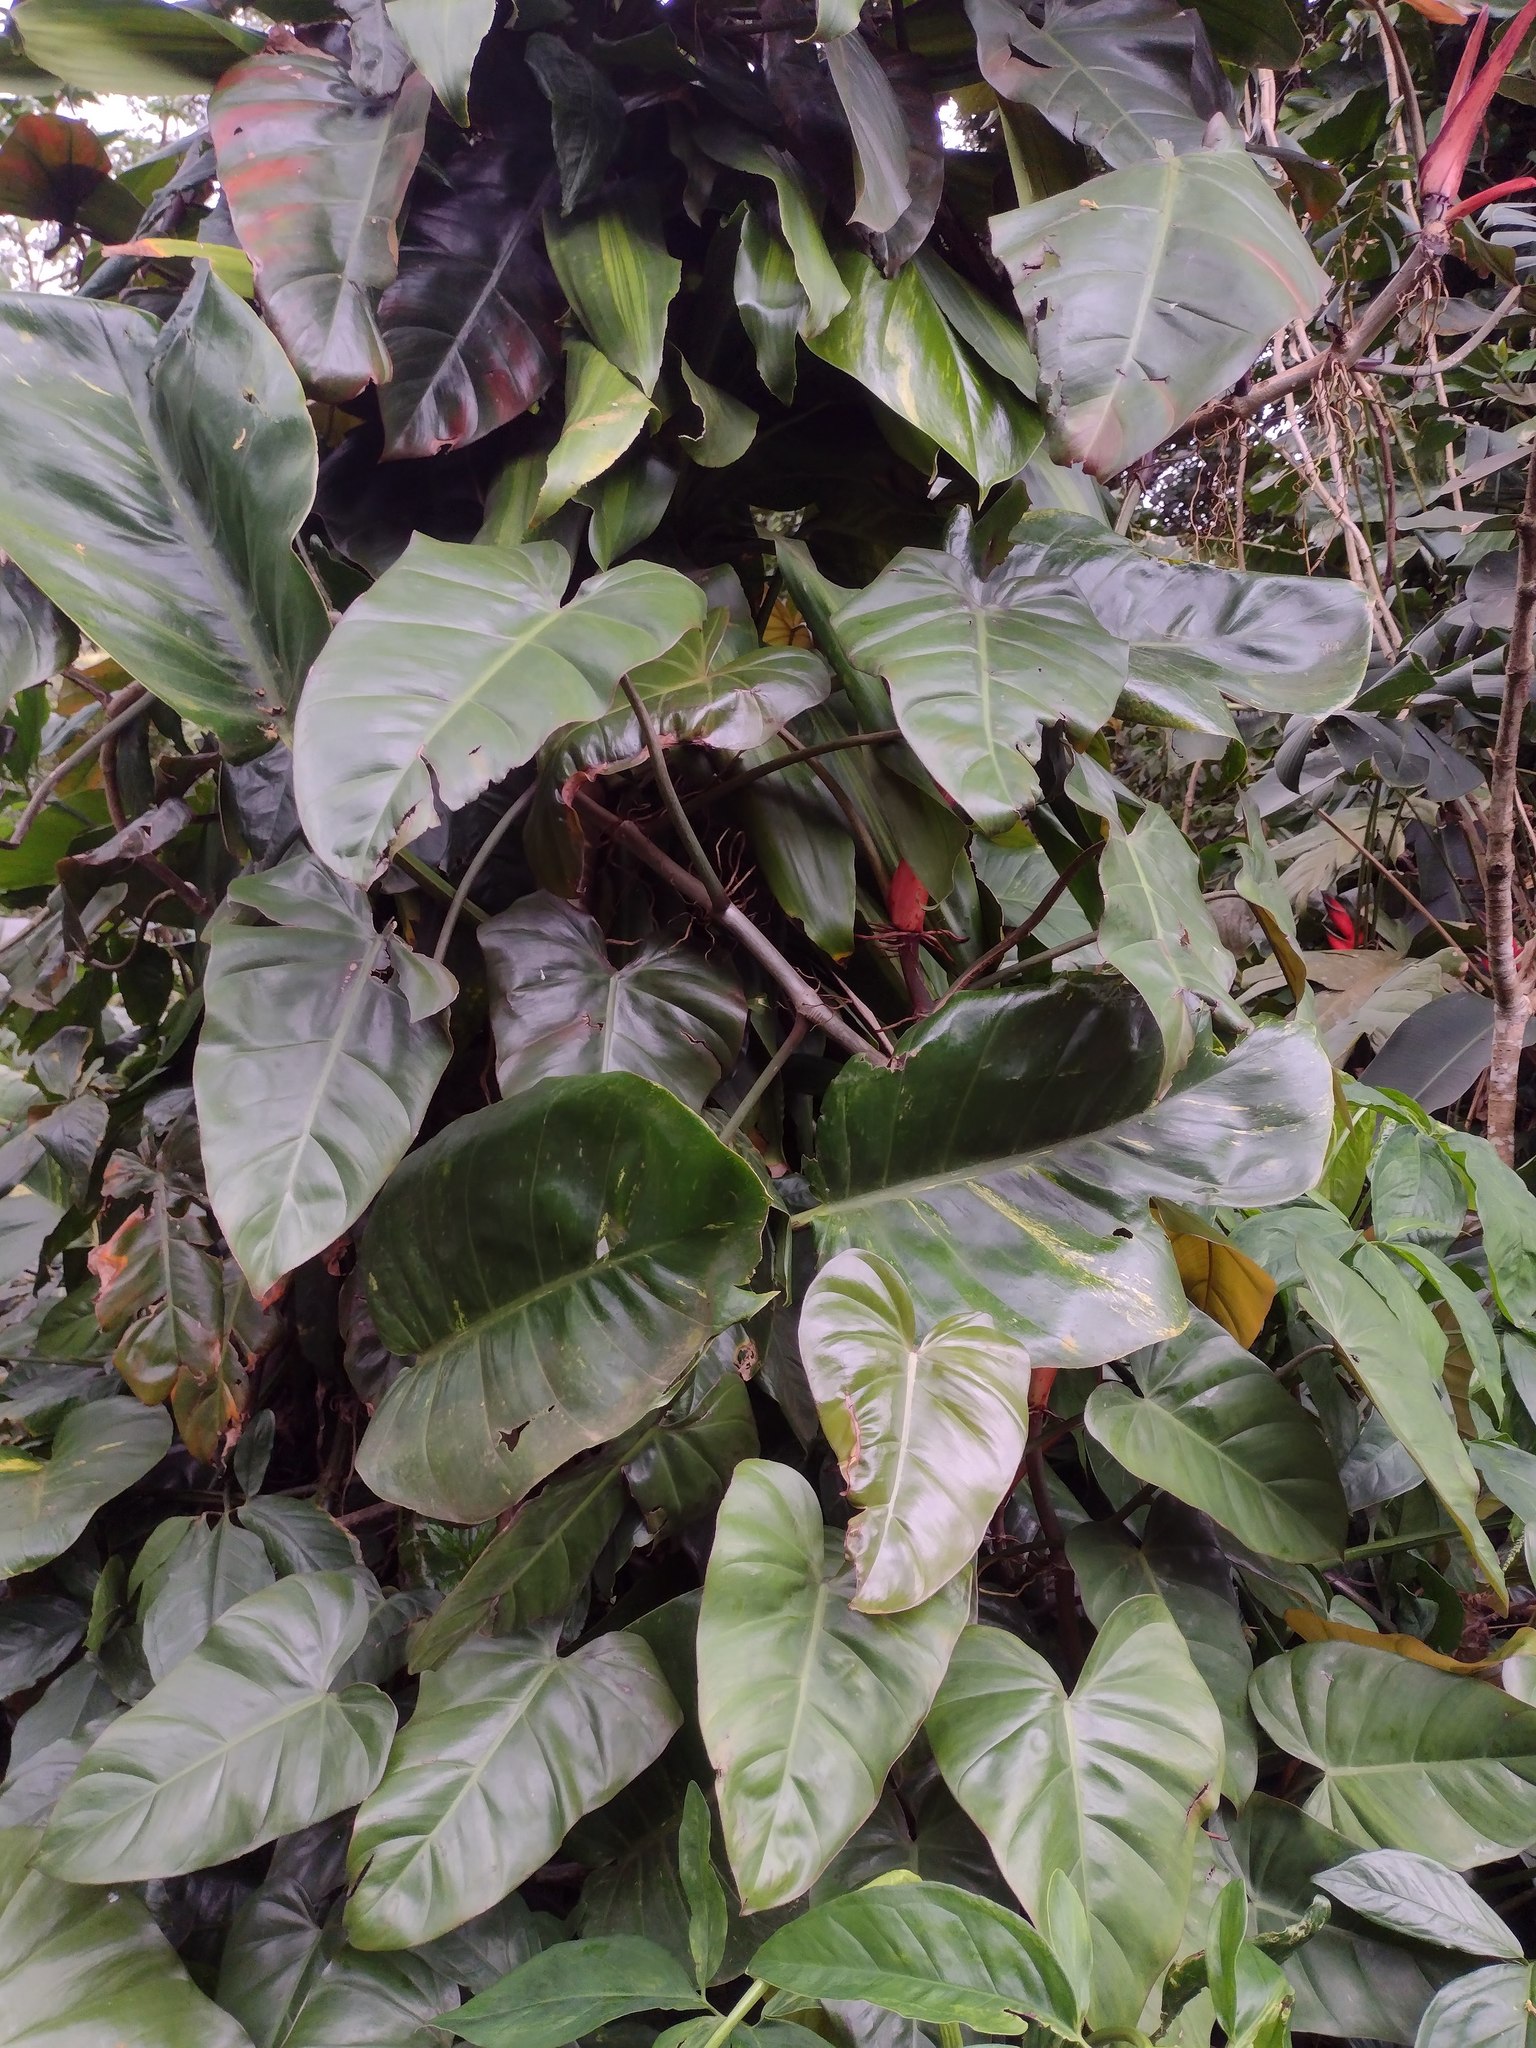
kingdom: Plantae
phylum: Tracheophyta
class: Liliopsida
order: Alismatales
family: Araceae
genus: Philodendron
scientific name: Philodendron erubescens
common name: Philodendron
